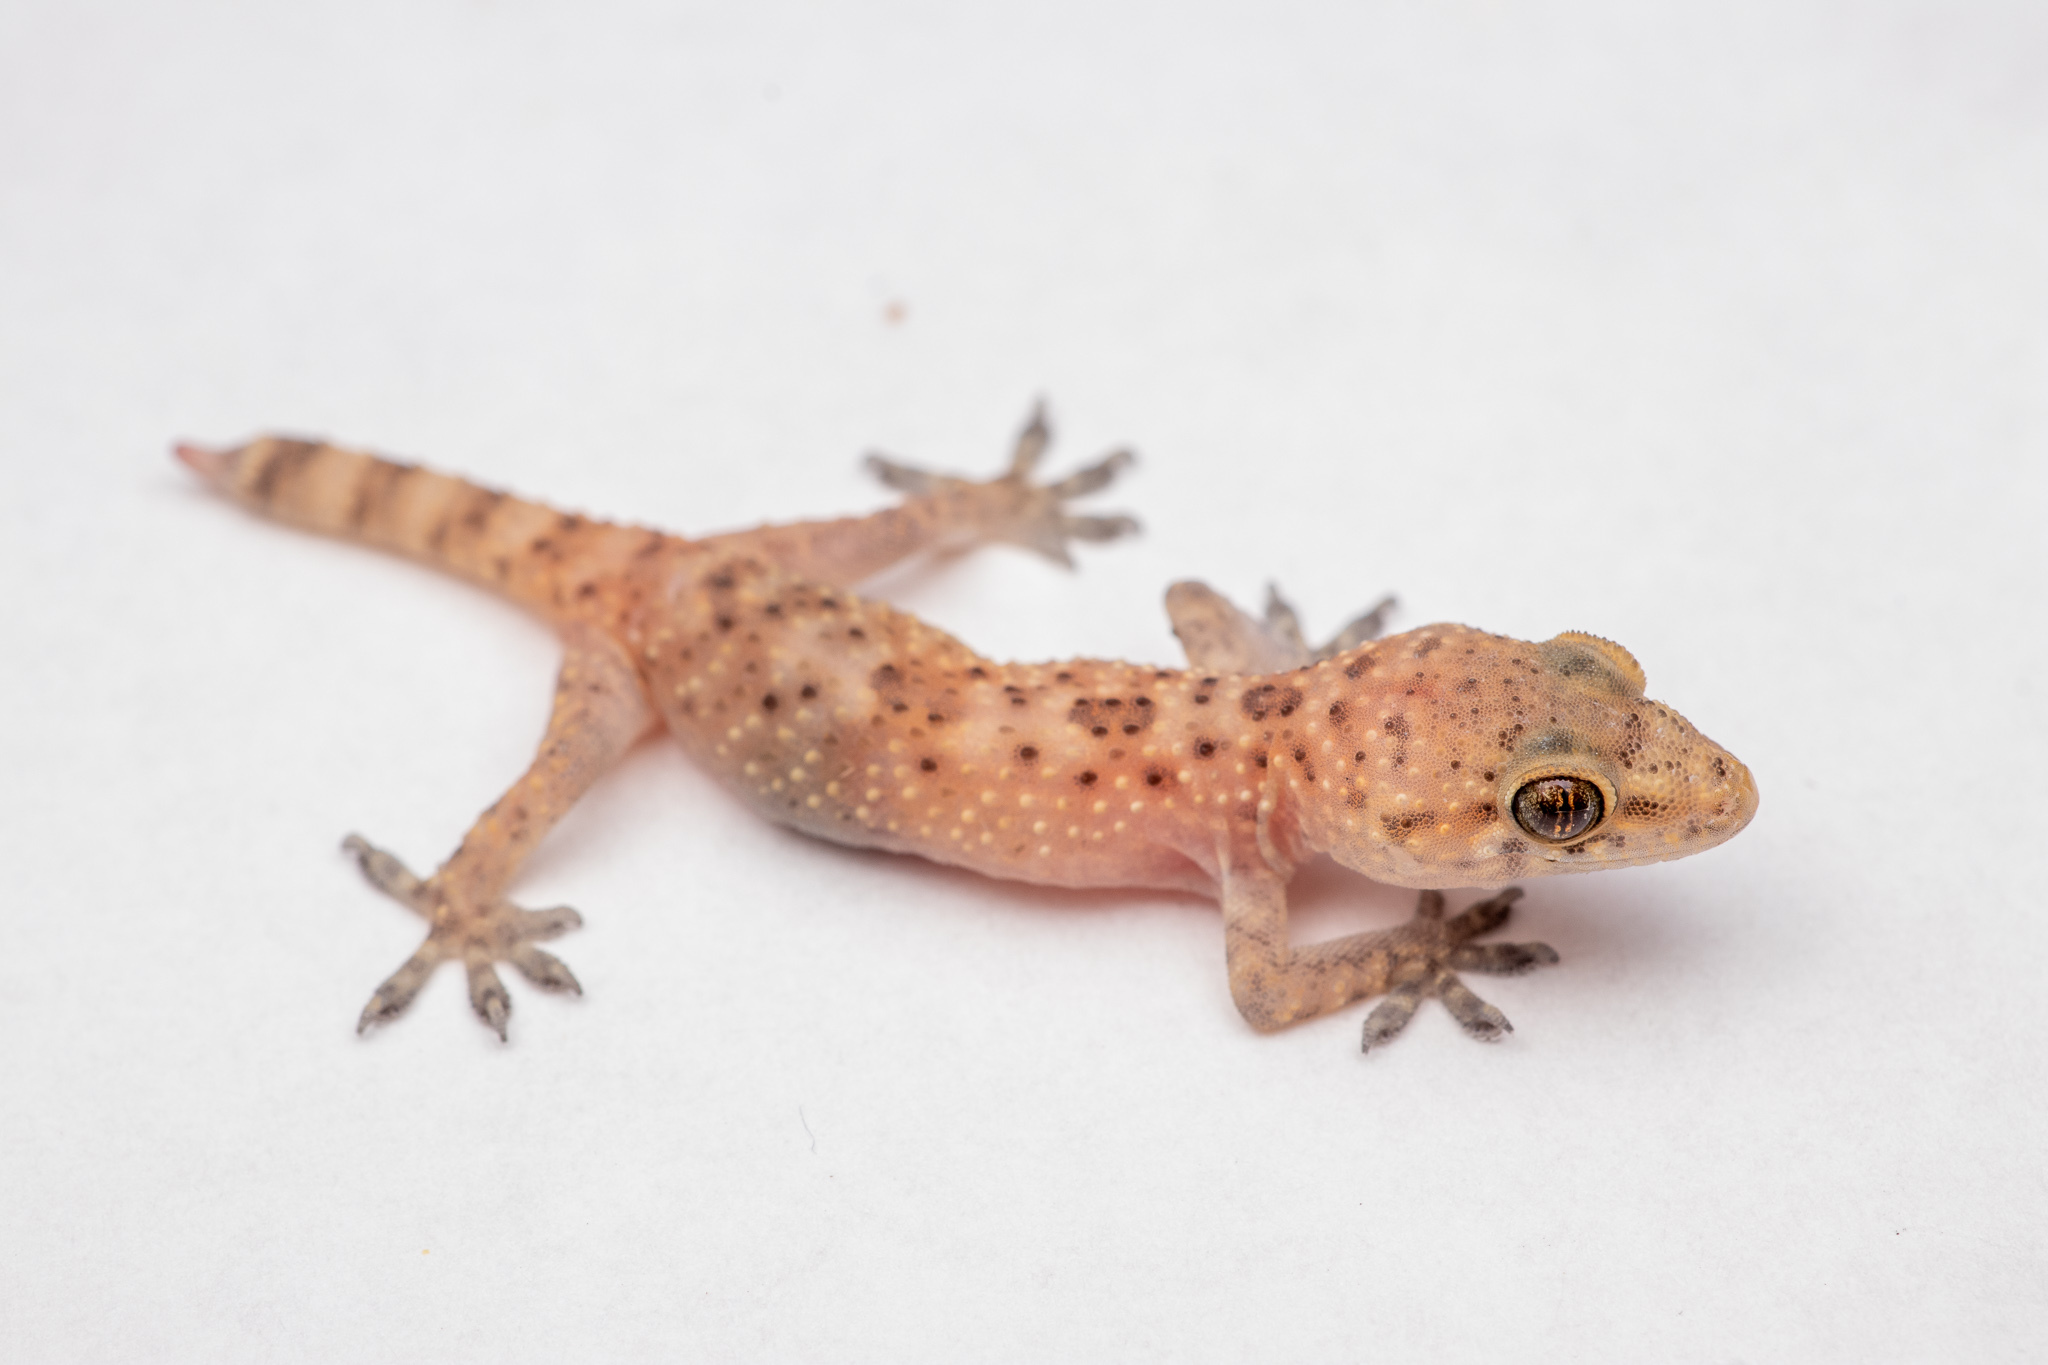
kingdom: Animalia
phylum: Chordata
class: Squamata
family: Gekkonidae
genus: Hemidactylus
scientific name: Hemidactylus turcicus
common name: Turkish gecko
